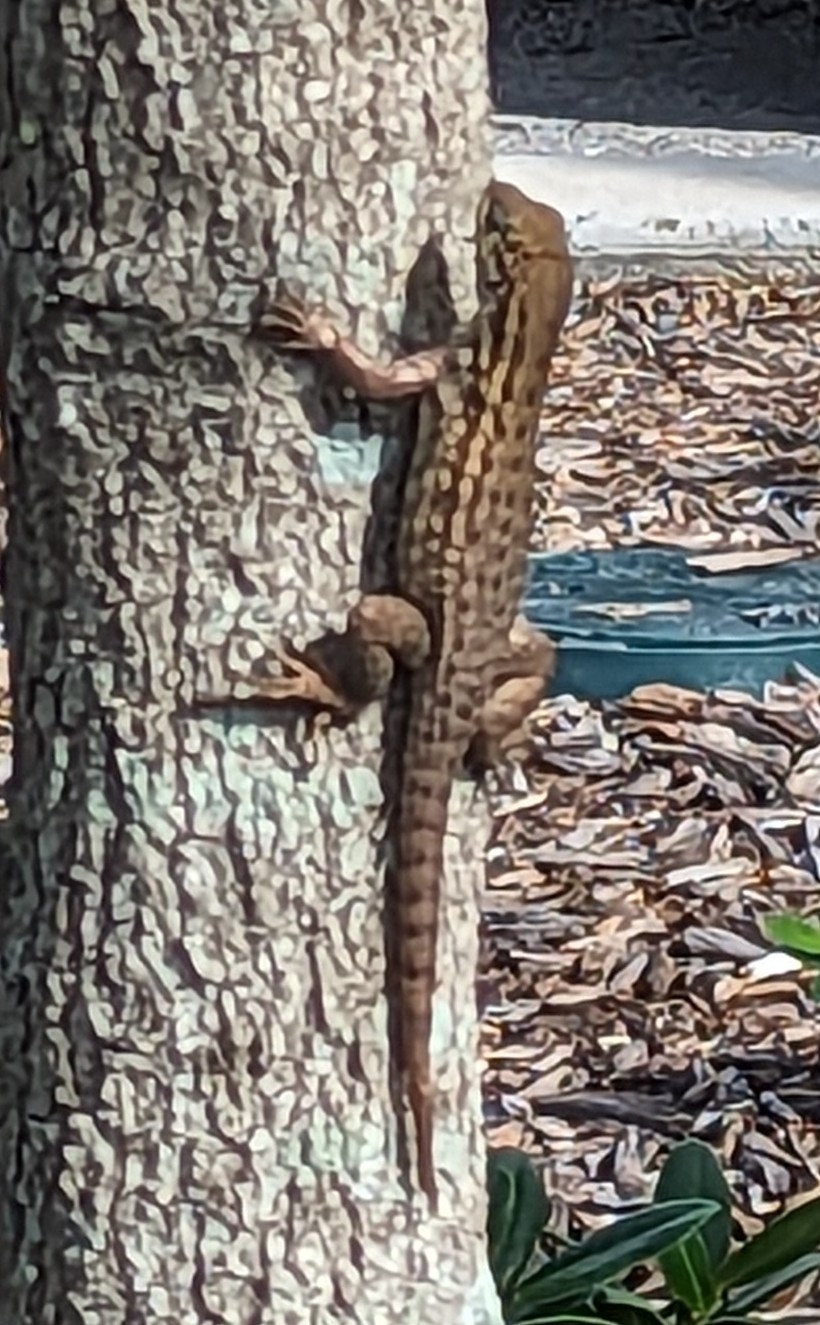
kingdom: Animalia
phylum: Chordata
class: Squamata
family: Leiocephalidae
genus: Leiocephalus
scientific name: Leiocephalus carinatus
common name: Northern curly-tailed lizard
